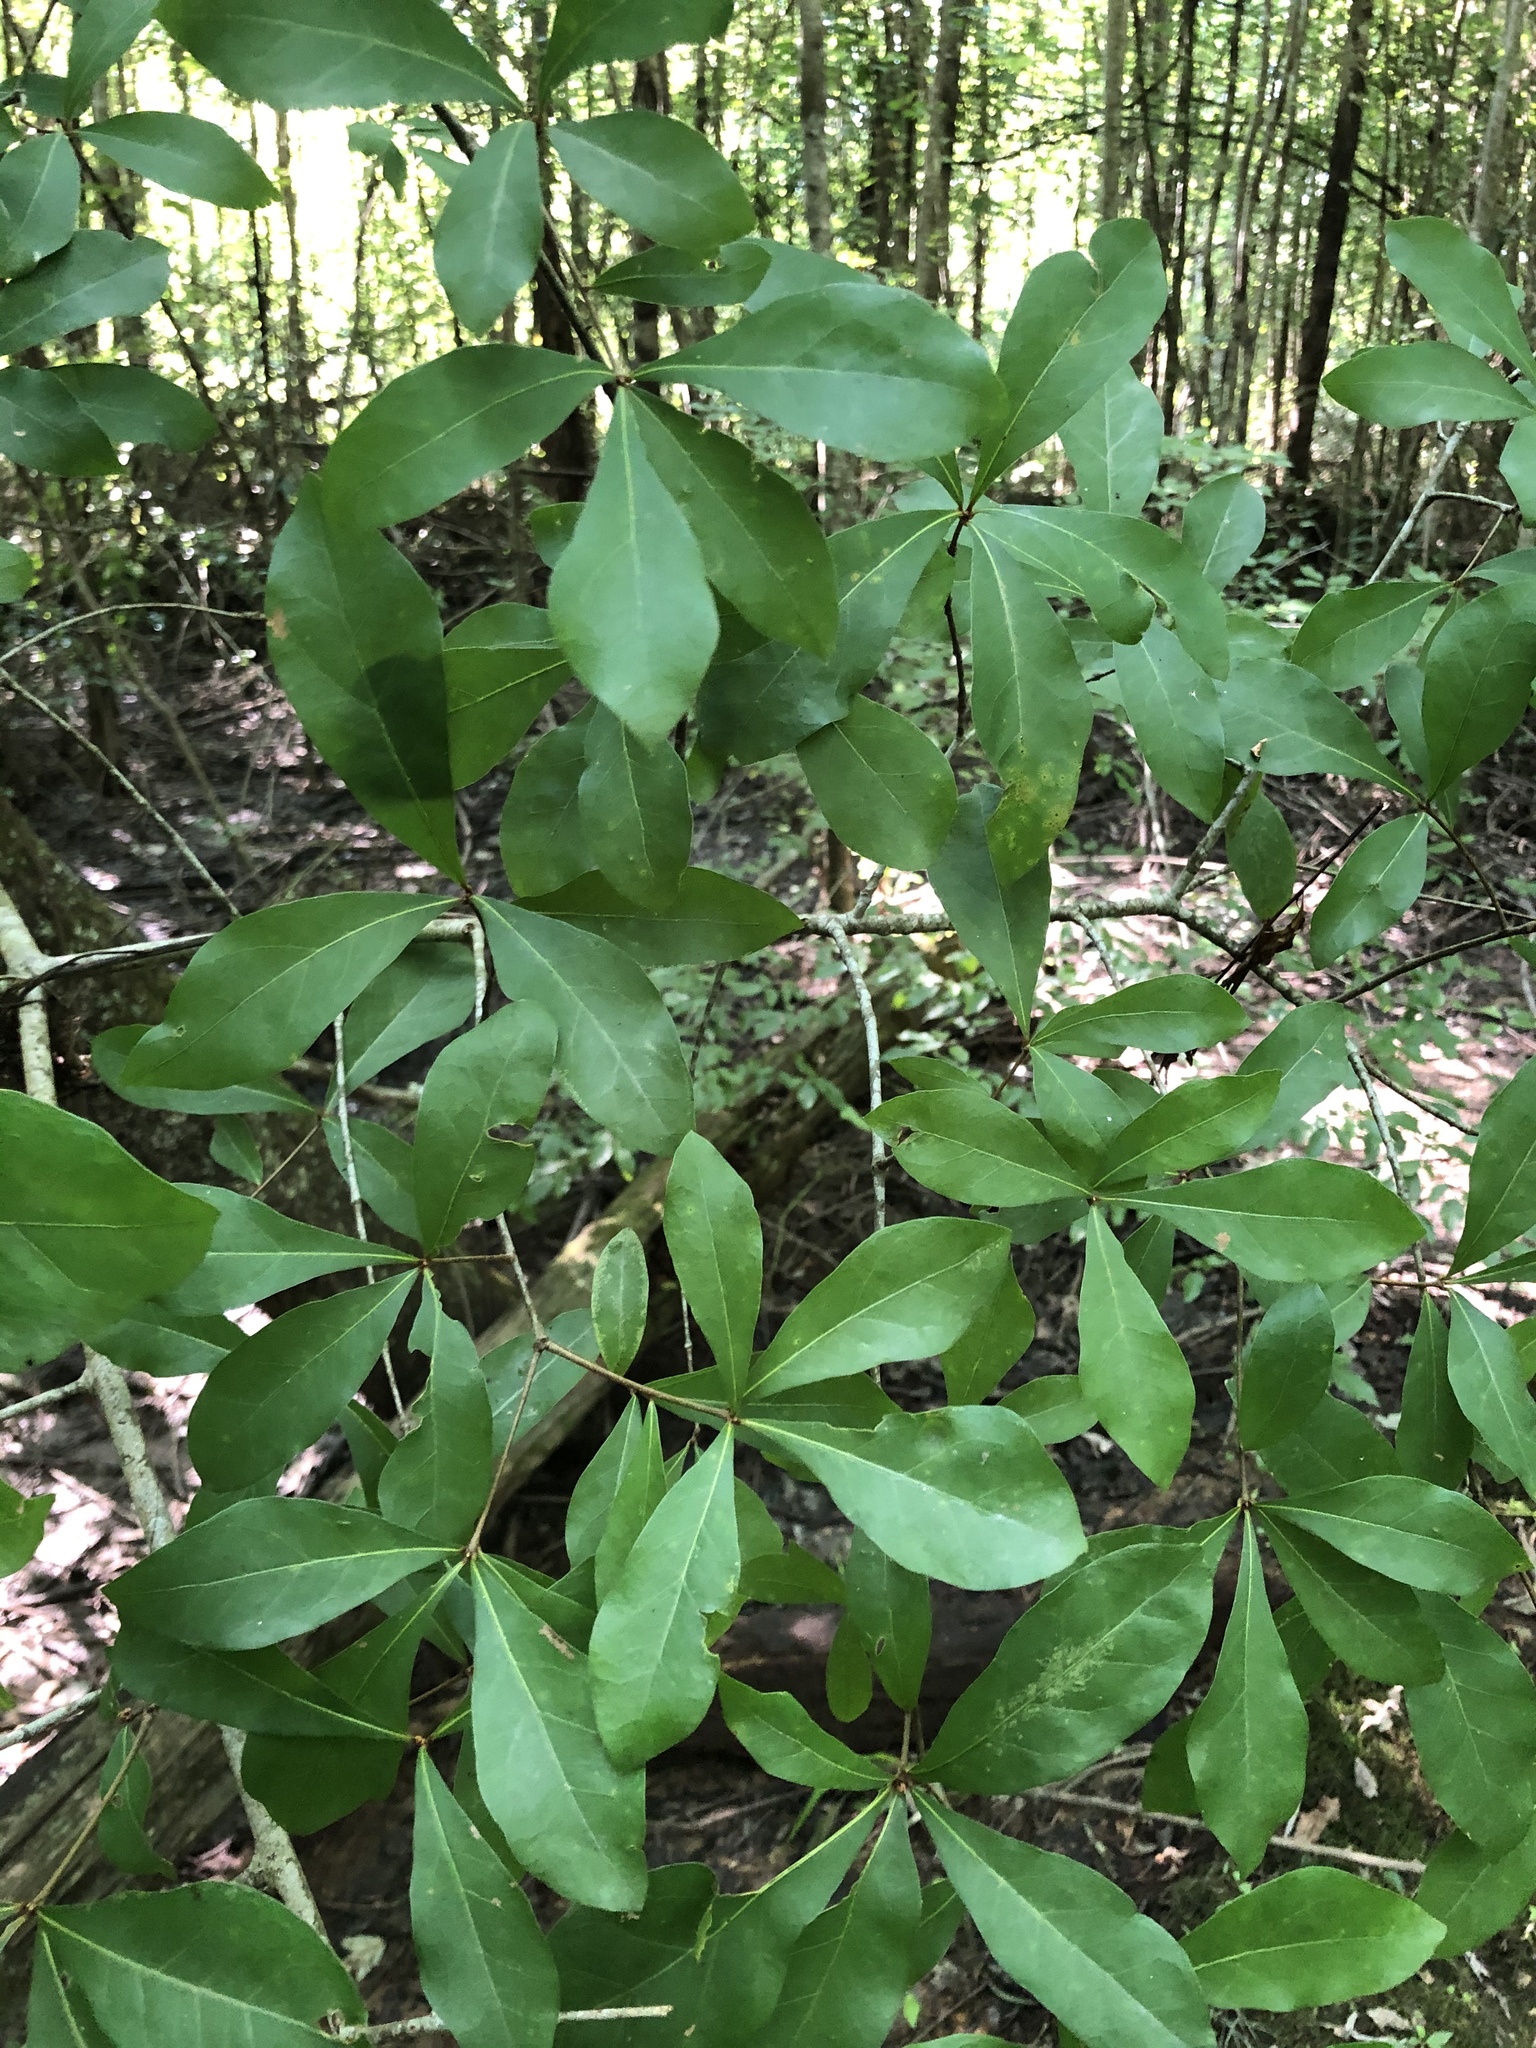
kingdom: Plantae
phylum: Tracheophyta
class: Magnoliopsida
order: Fagales
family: Fagaceae
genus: Quercus
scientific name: Quercus laurifolia
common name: Swamp laurel oak
